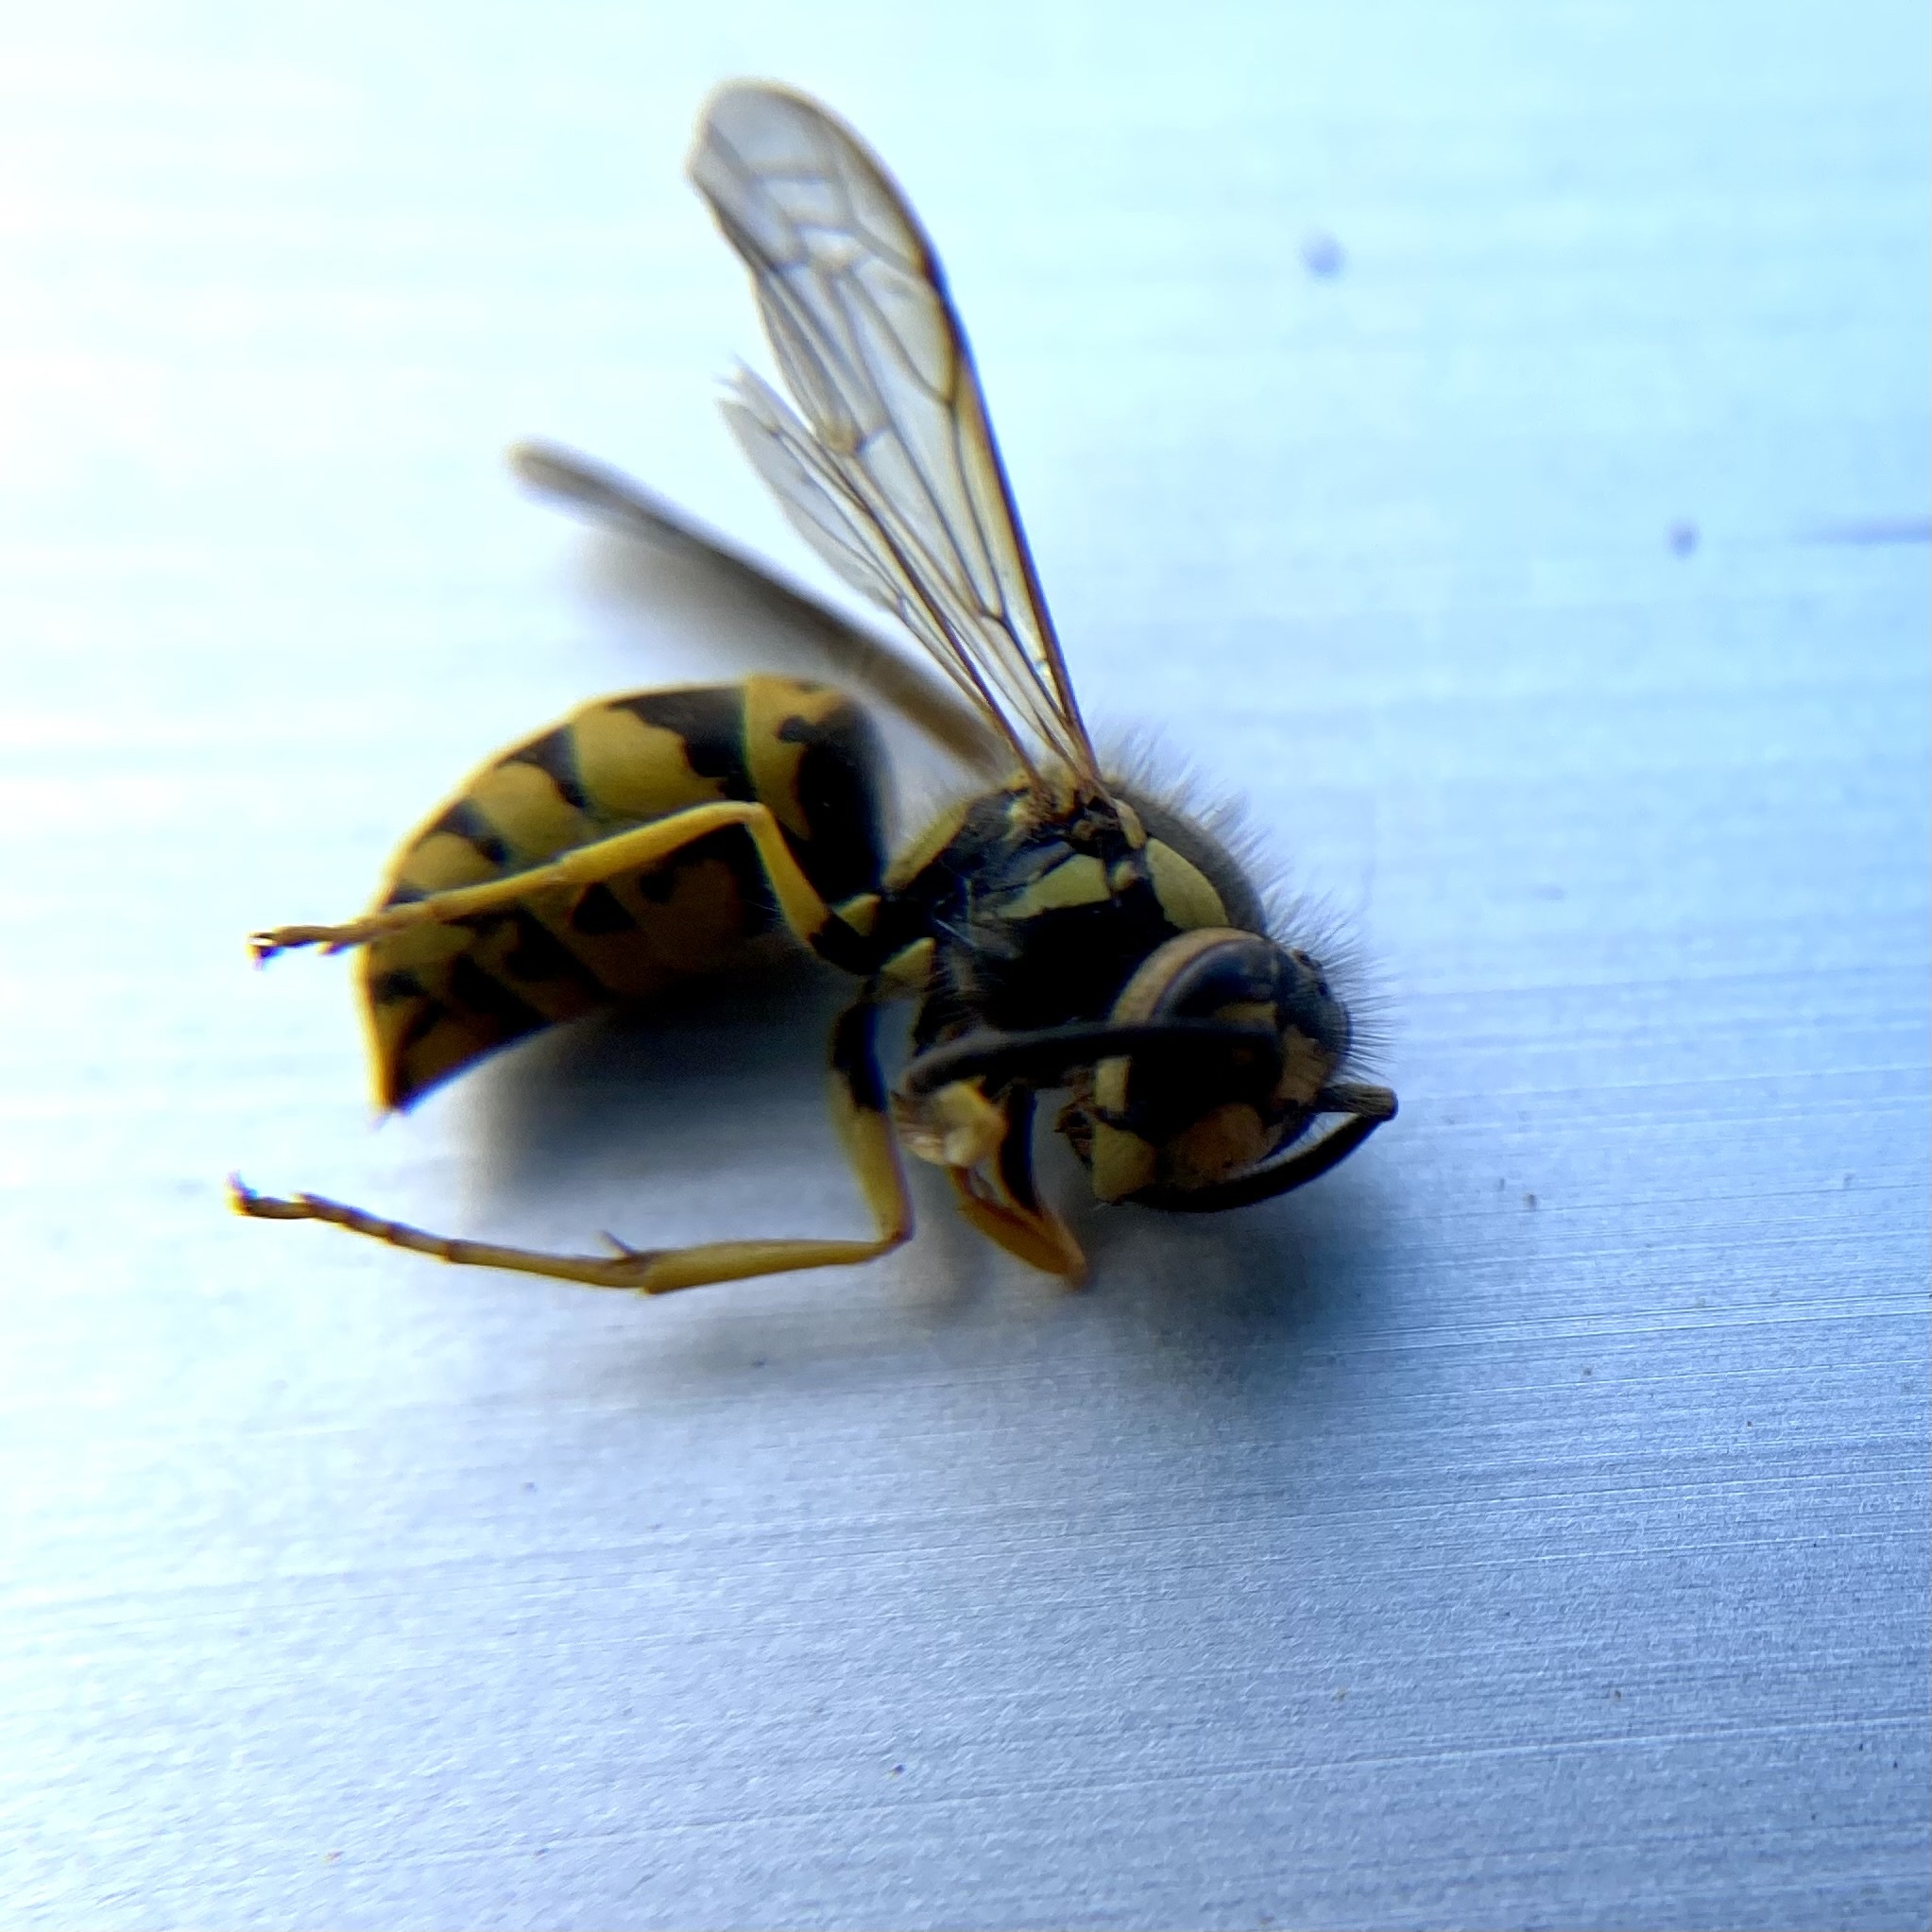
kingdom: Animalia
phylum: Arthropoda
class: Insecta
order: Hymenoptera
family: Vespidae
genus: Vespula
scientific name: Vespula maculifrons
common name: Eastern yellowjacket
